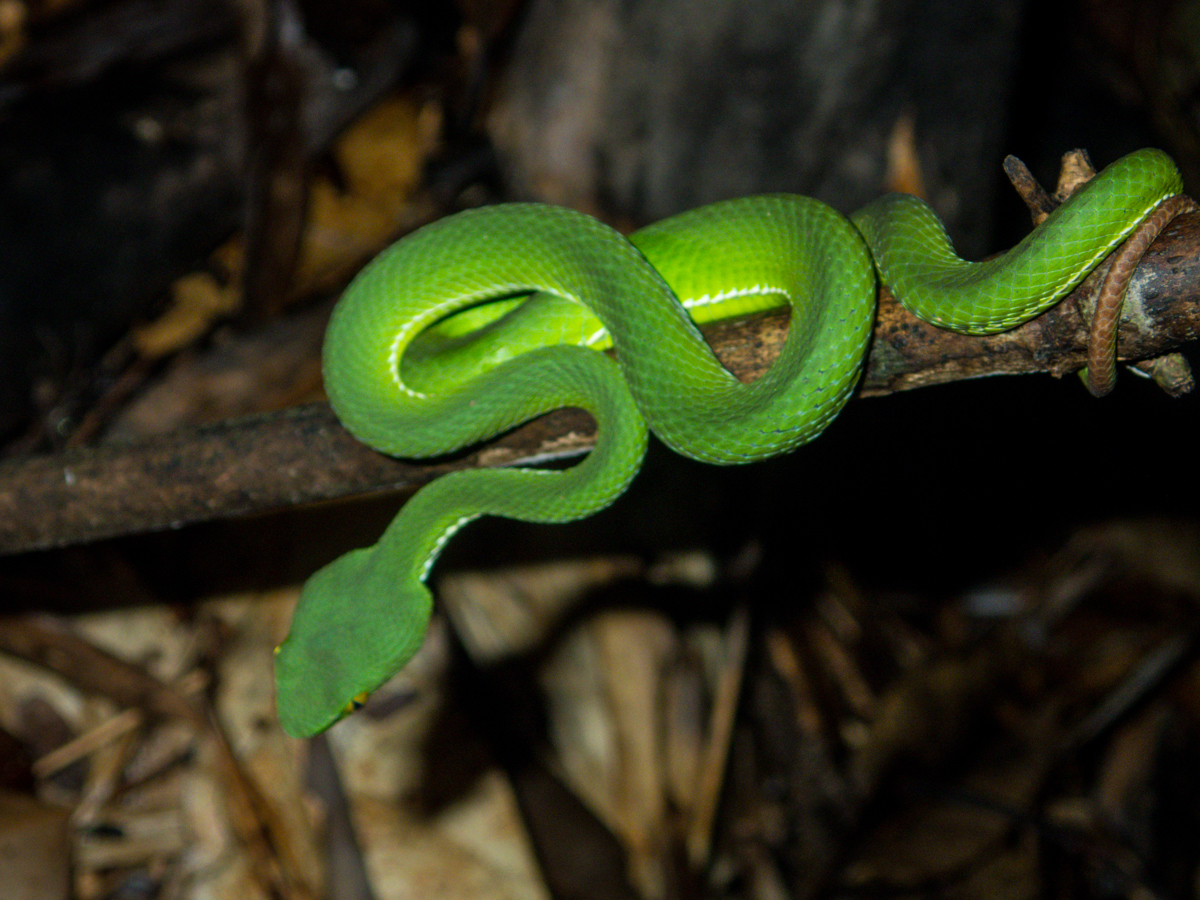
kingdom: Animalia
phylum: Chordata
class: Squamata
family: Viperidae
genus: Trimeresurus
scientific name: Trimeresurus cardamomensis
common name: Cardamom mountains green pitviper
